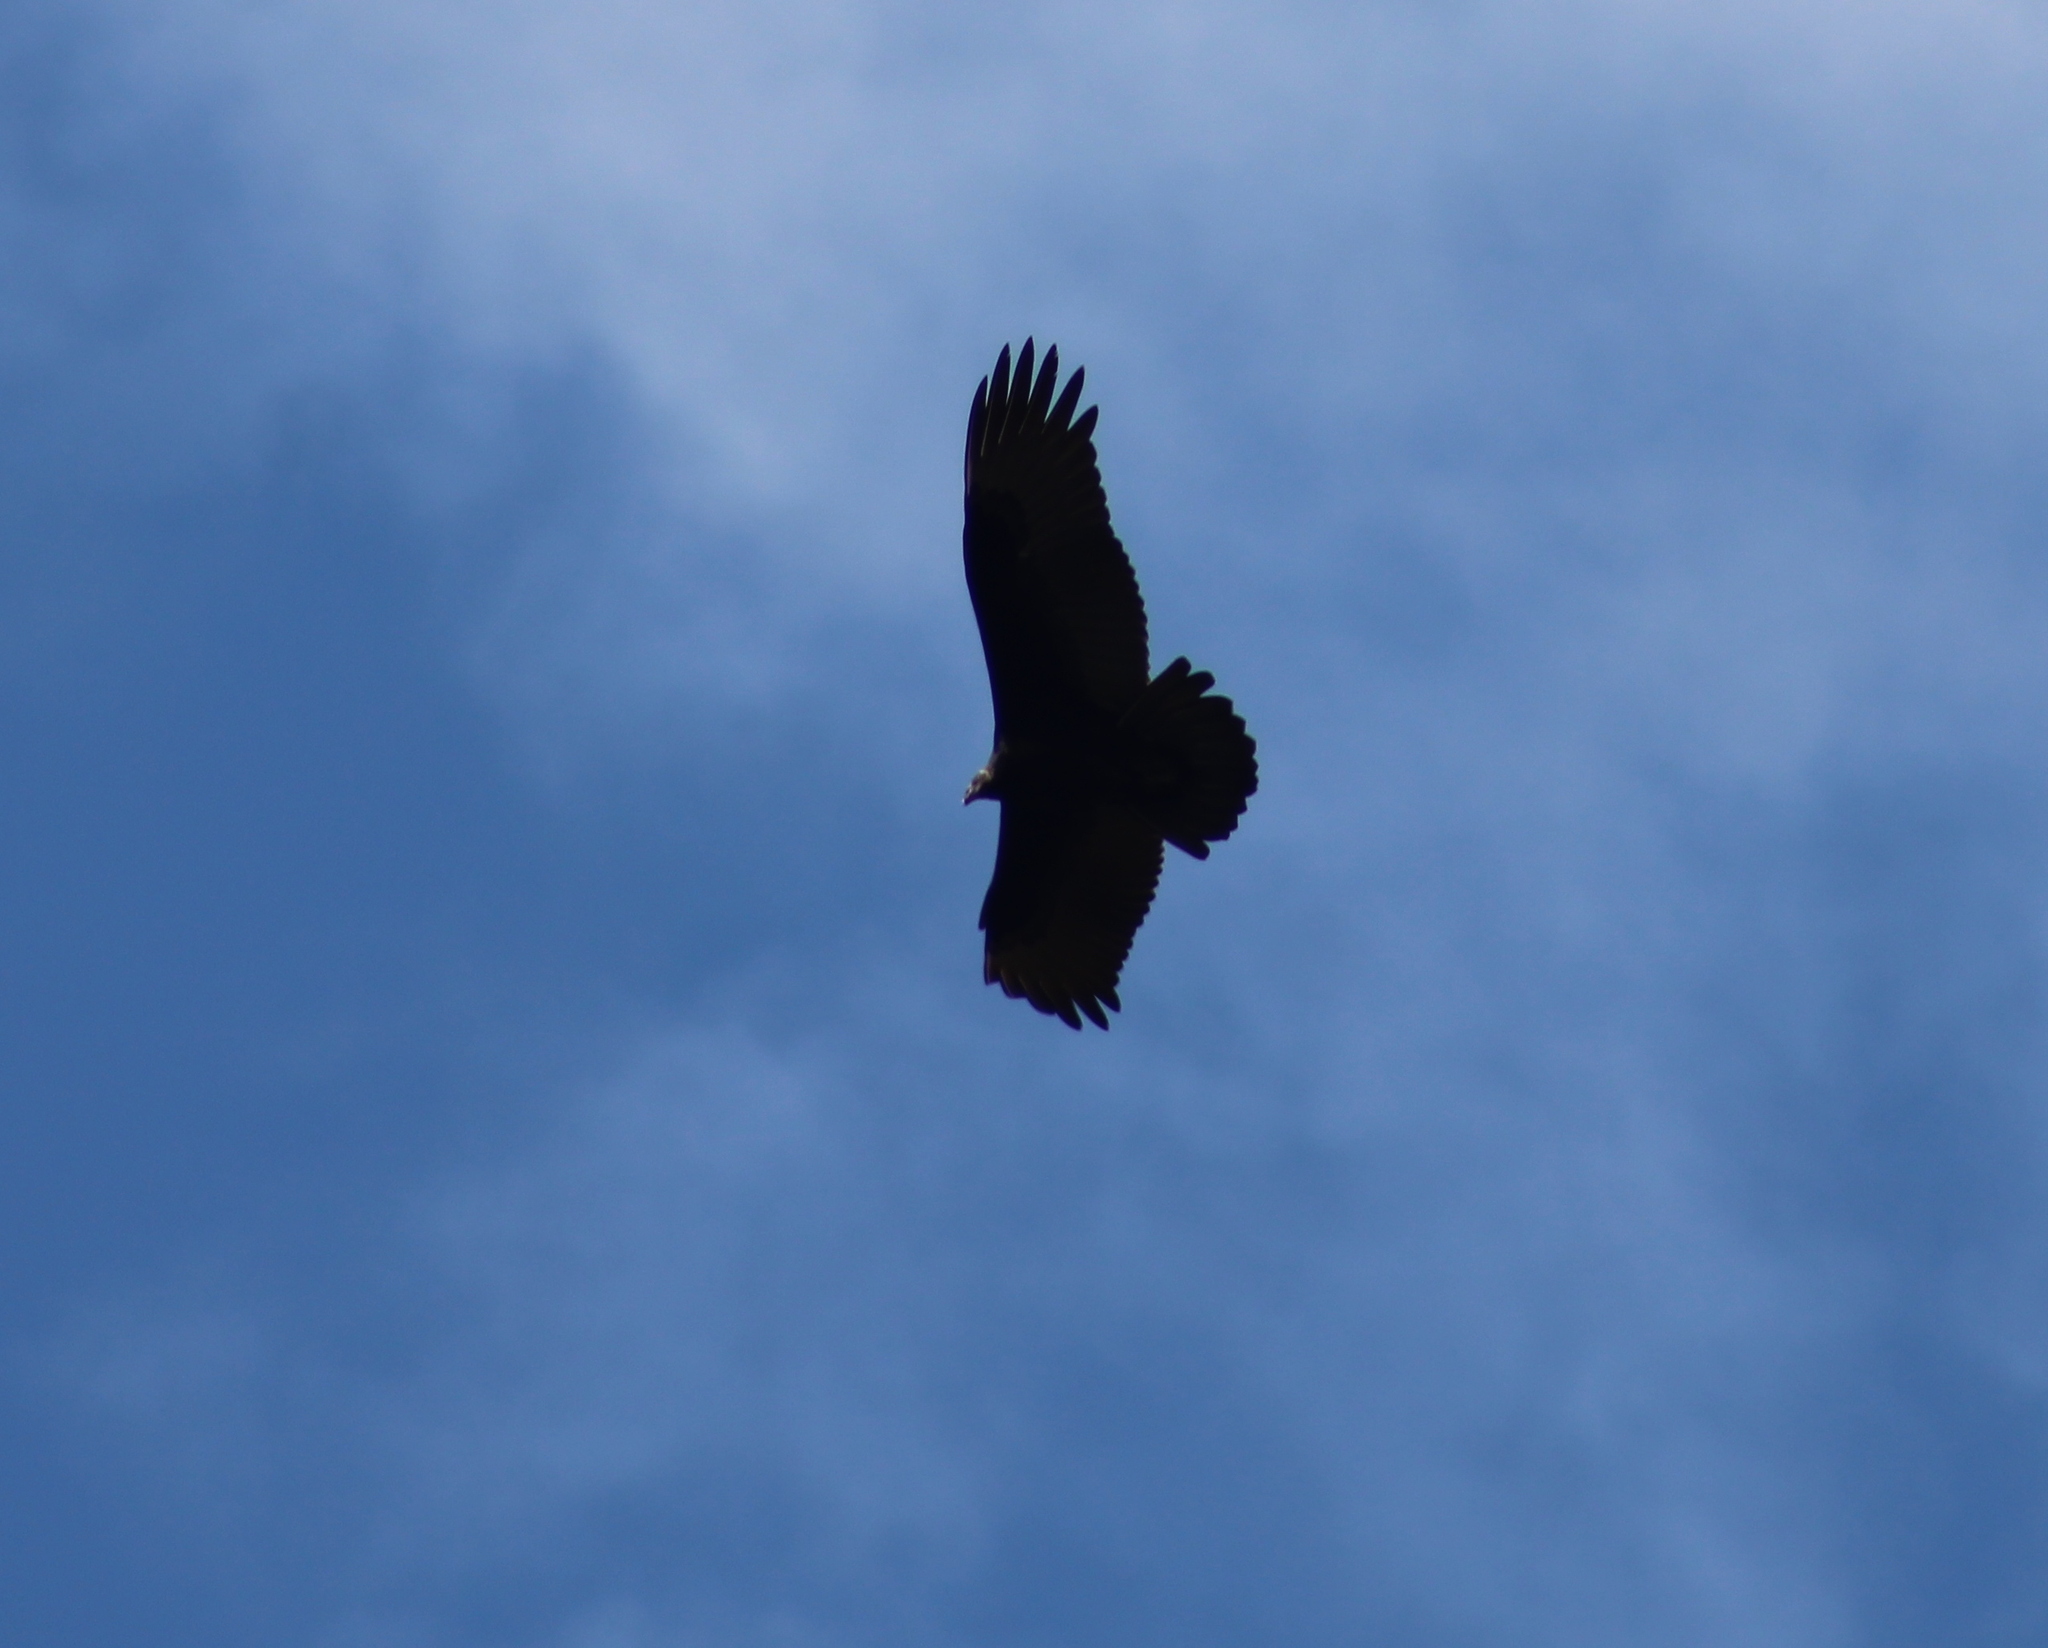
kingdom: Animalia
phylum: Chordata
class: Aves
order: Accipitriformes
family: Cathartidae
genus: Cathartes
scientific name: Cathartes aura
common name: Turkey vulture
